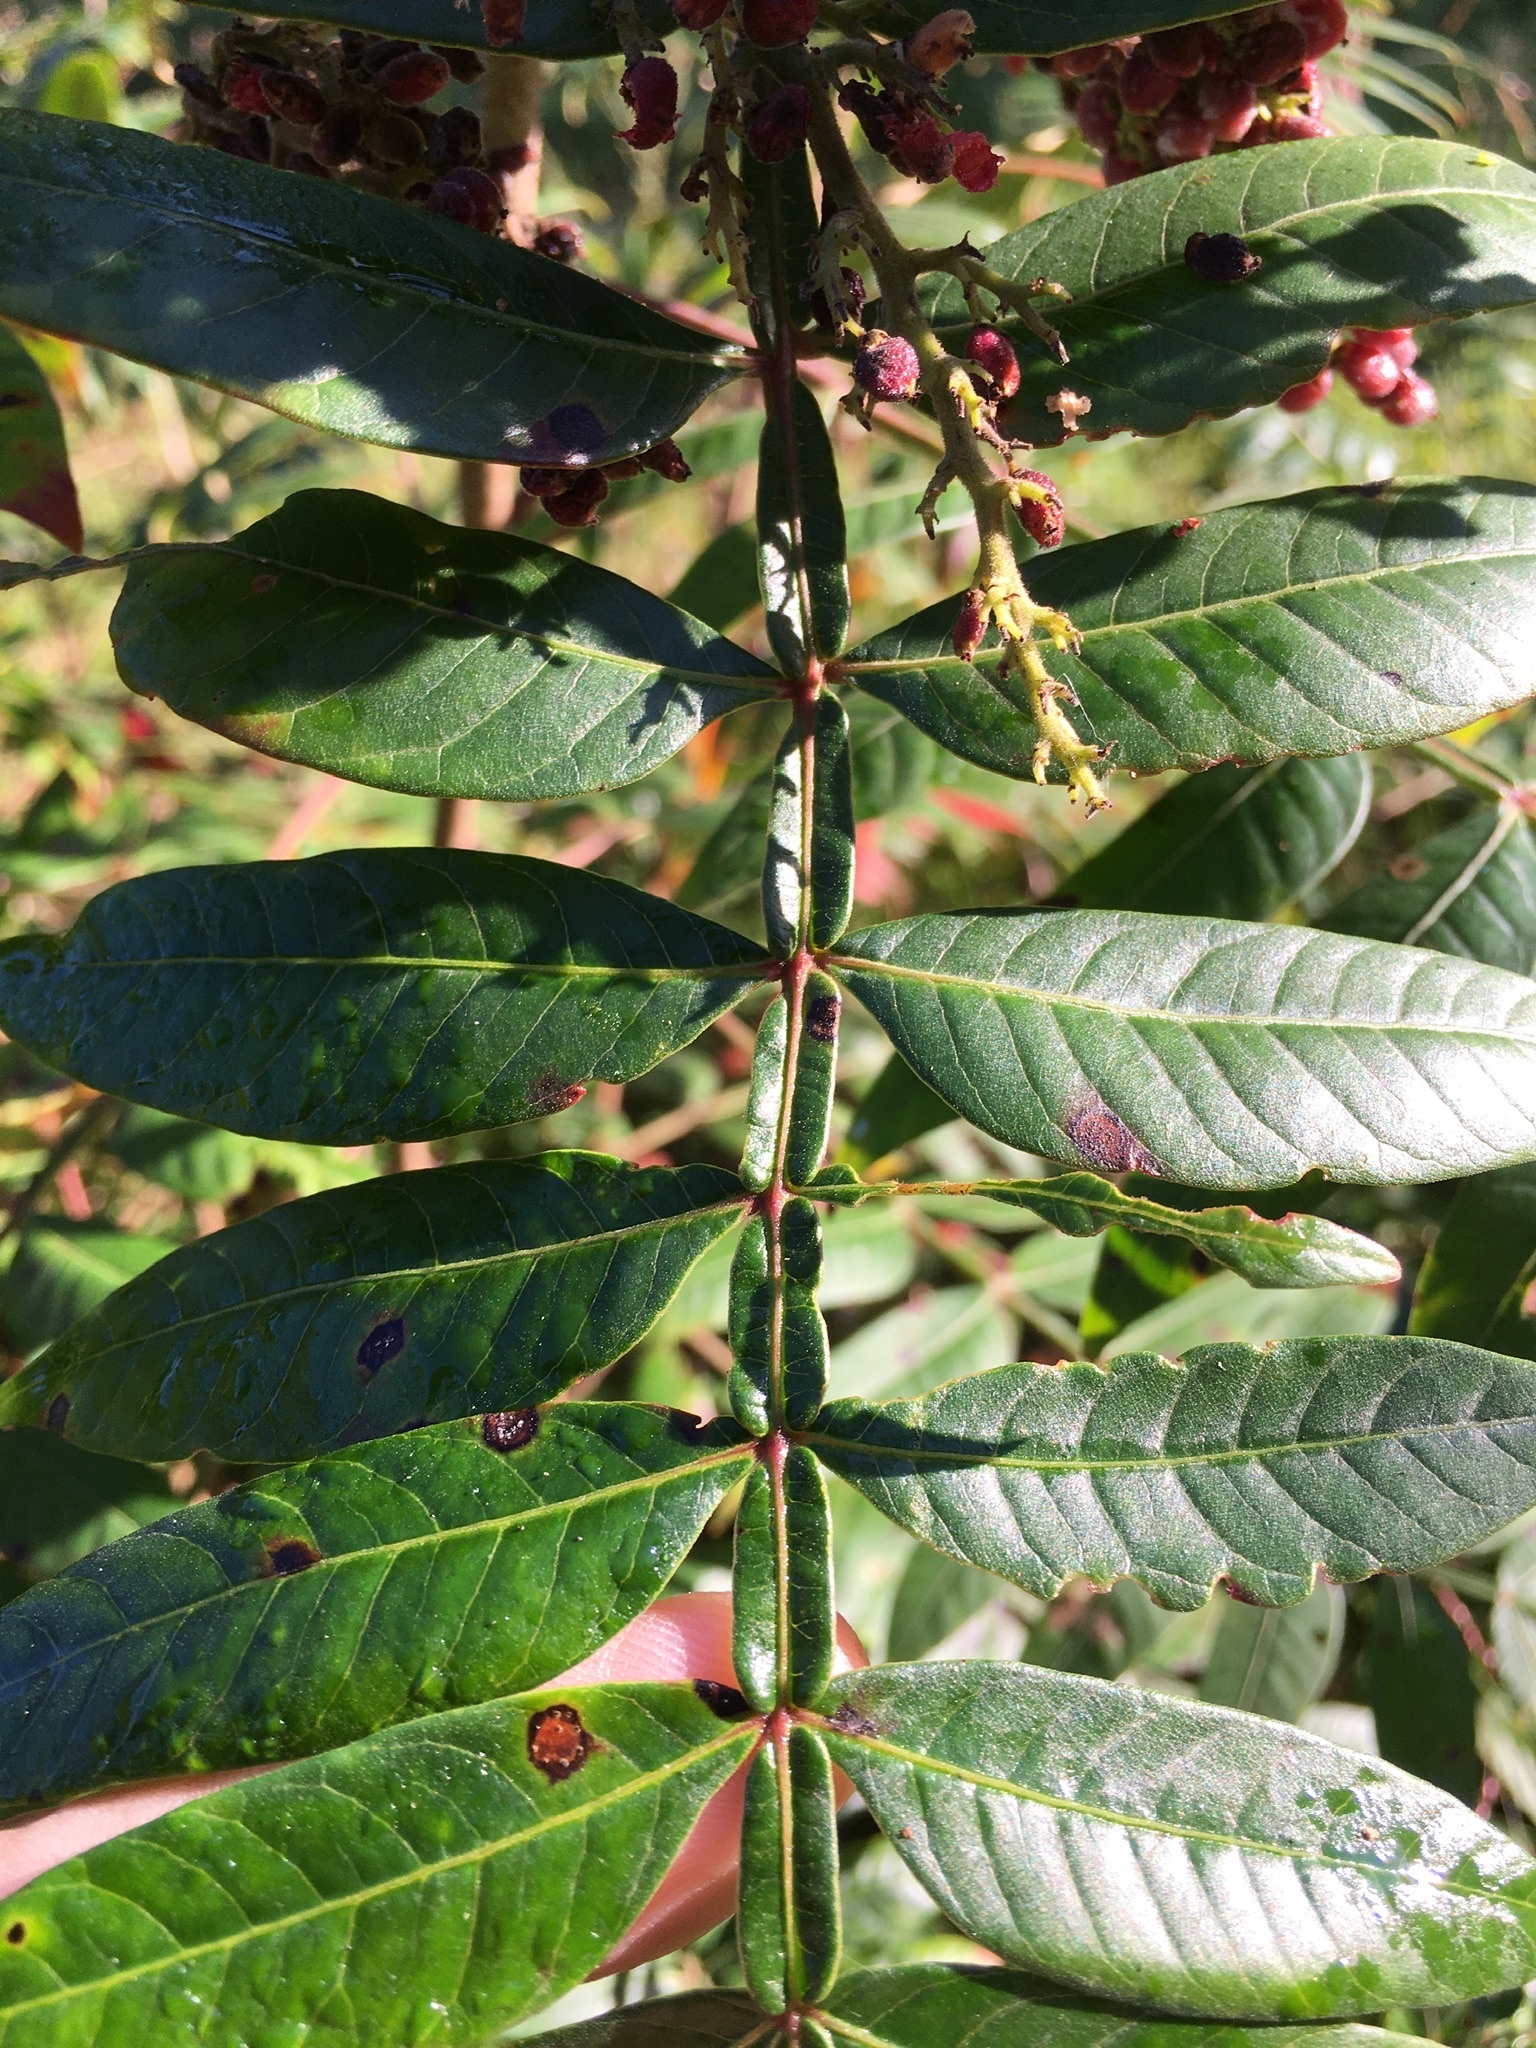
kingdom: Plantae
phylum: Tracheophyta
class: Magnoliopsida
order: Sapindales
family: Anacardiaceae
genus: Rhus
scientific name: Rhus copallina
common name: Shining sumac
